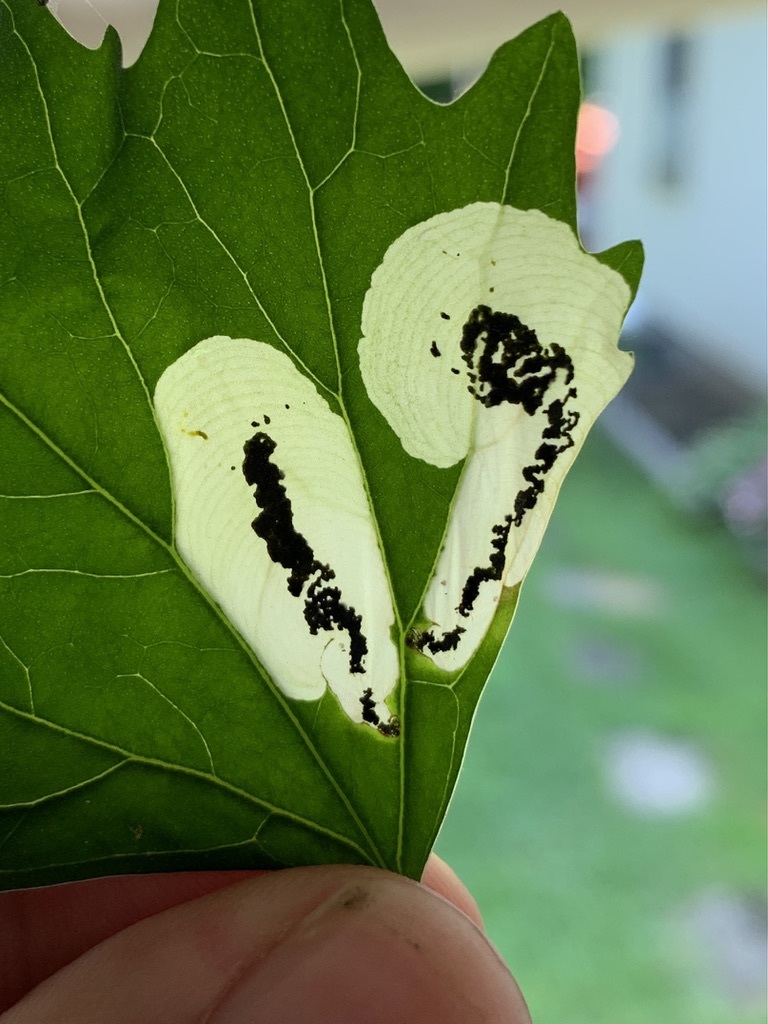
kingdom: Animalia
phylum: Arthropoda
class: Insecta
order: Lepidoptera
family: Gelechiidae
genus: Chrysoesthia
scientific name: Chrysoesthia sexguttella
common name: Moth
